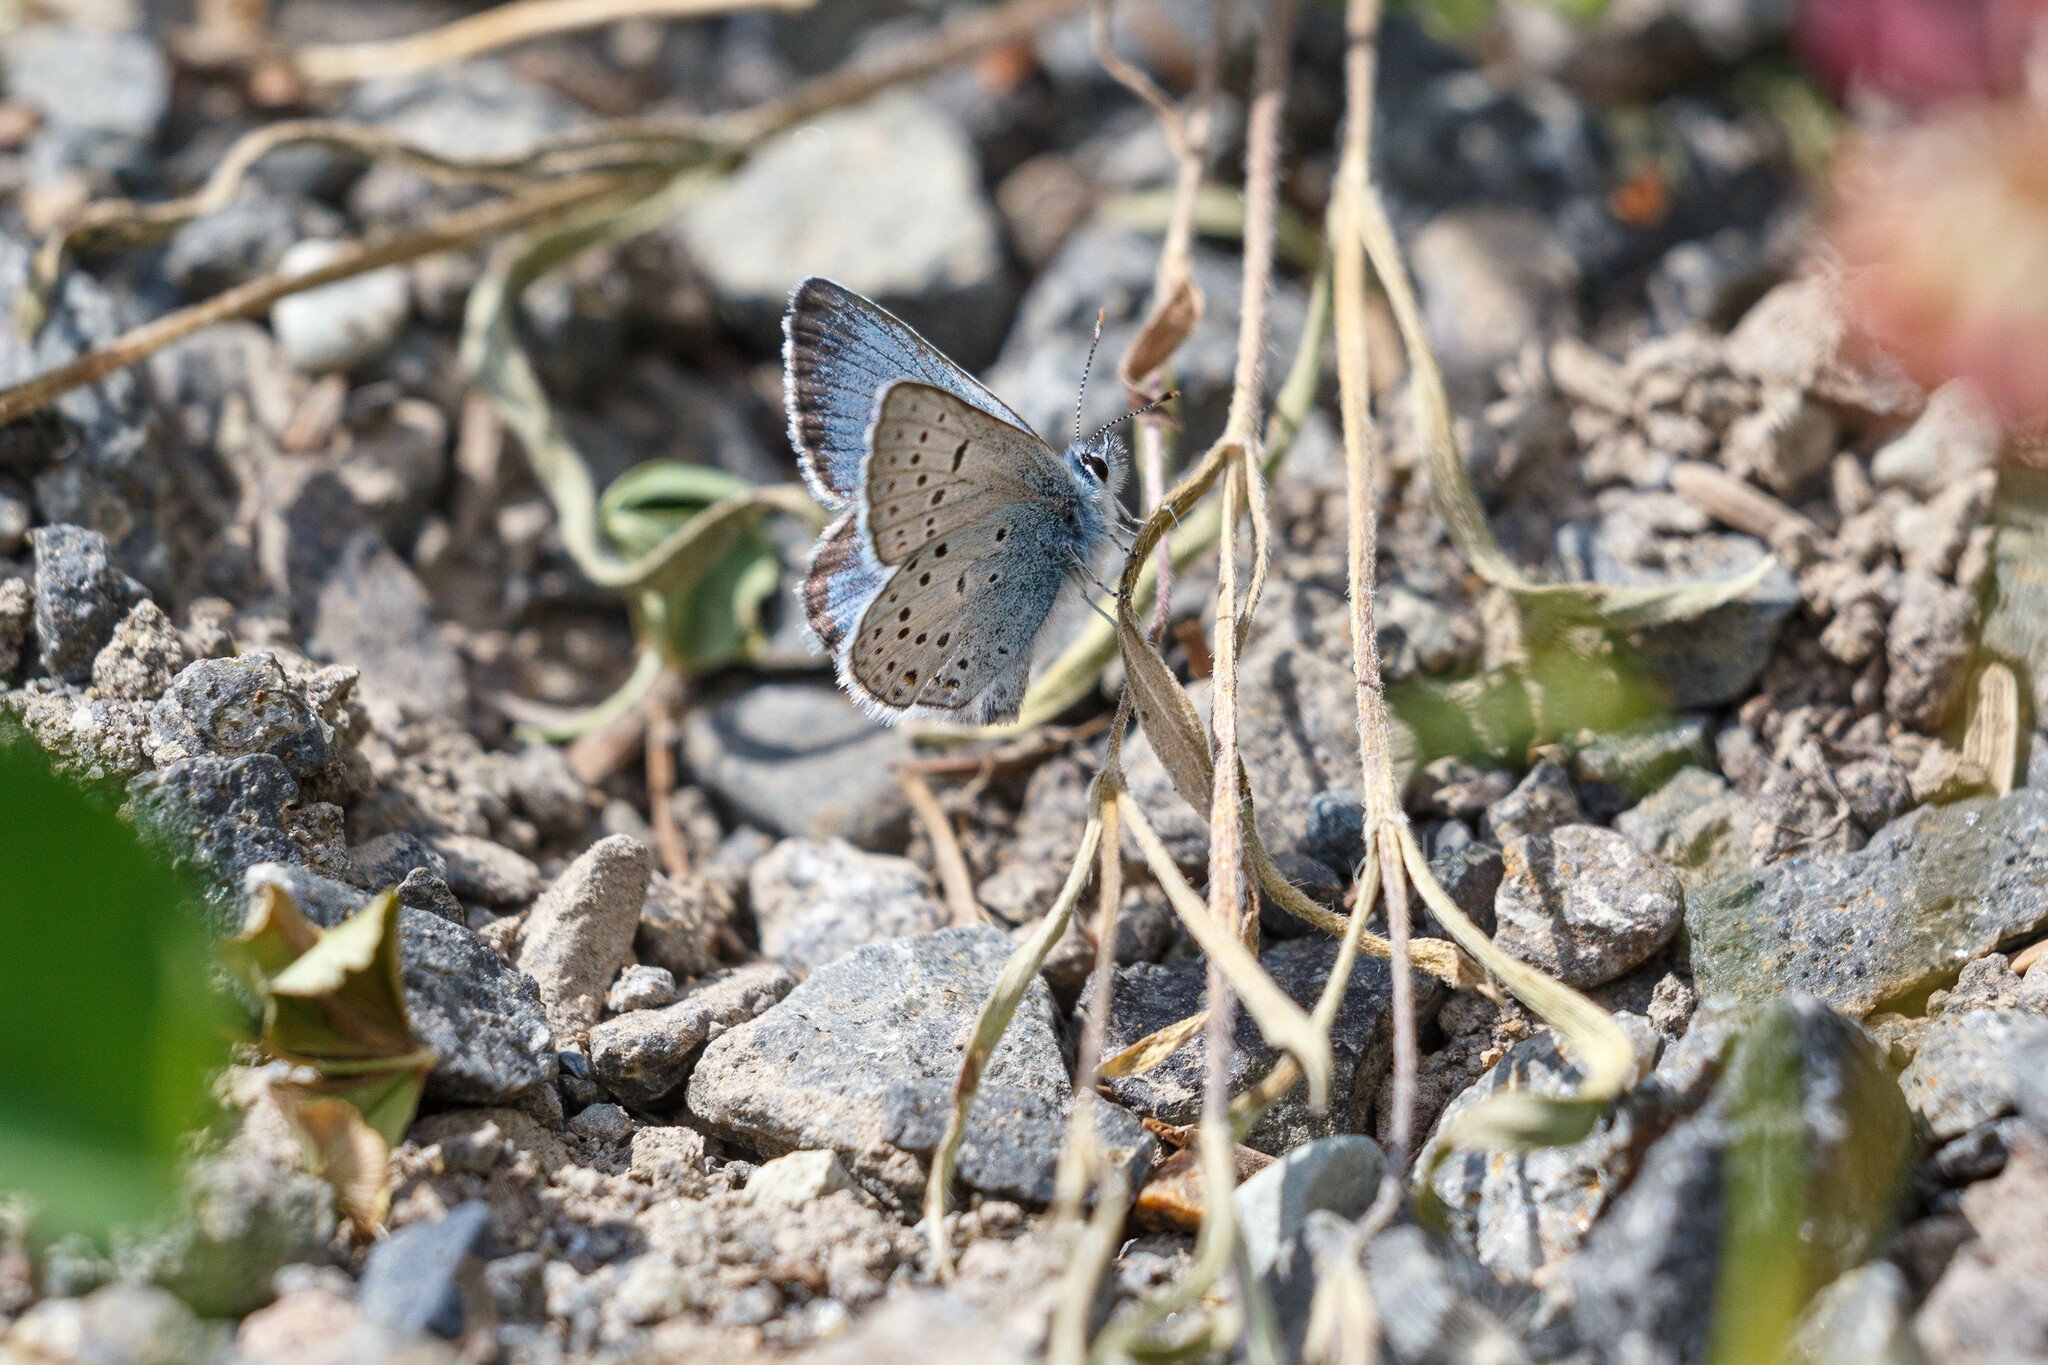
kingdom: Animalia
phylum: Arthropoda
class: Insecta
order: Lepidoptera
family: Lycaenidae
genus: Icaricia
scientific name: Icaricia saepiolus
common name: Greenish blue
